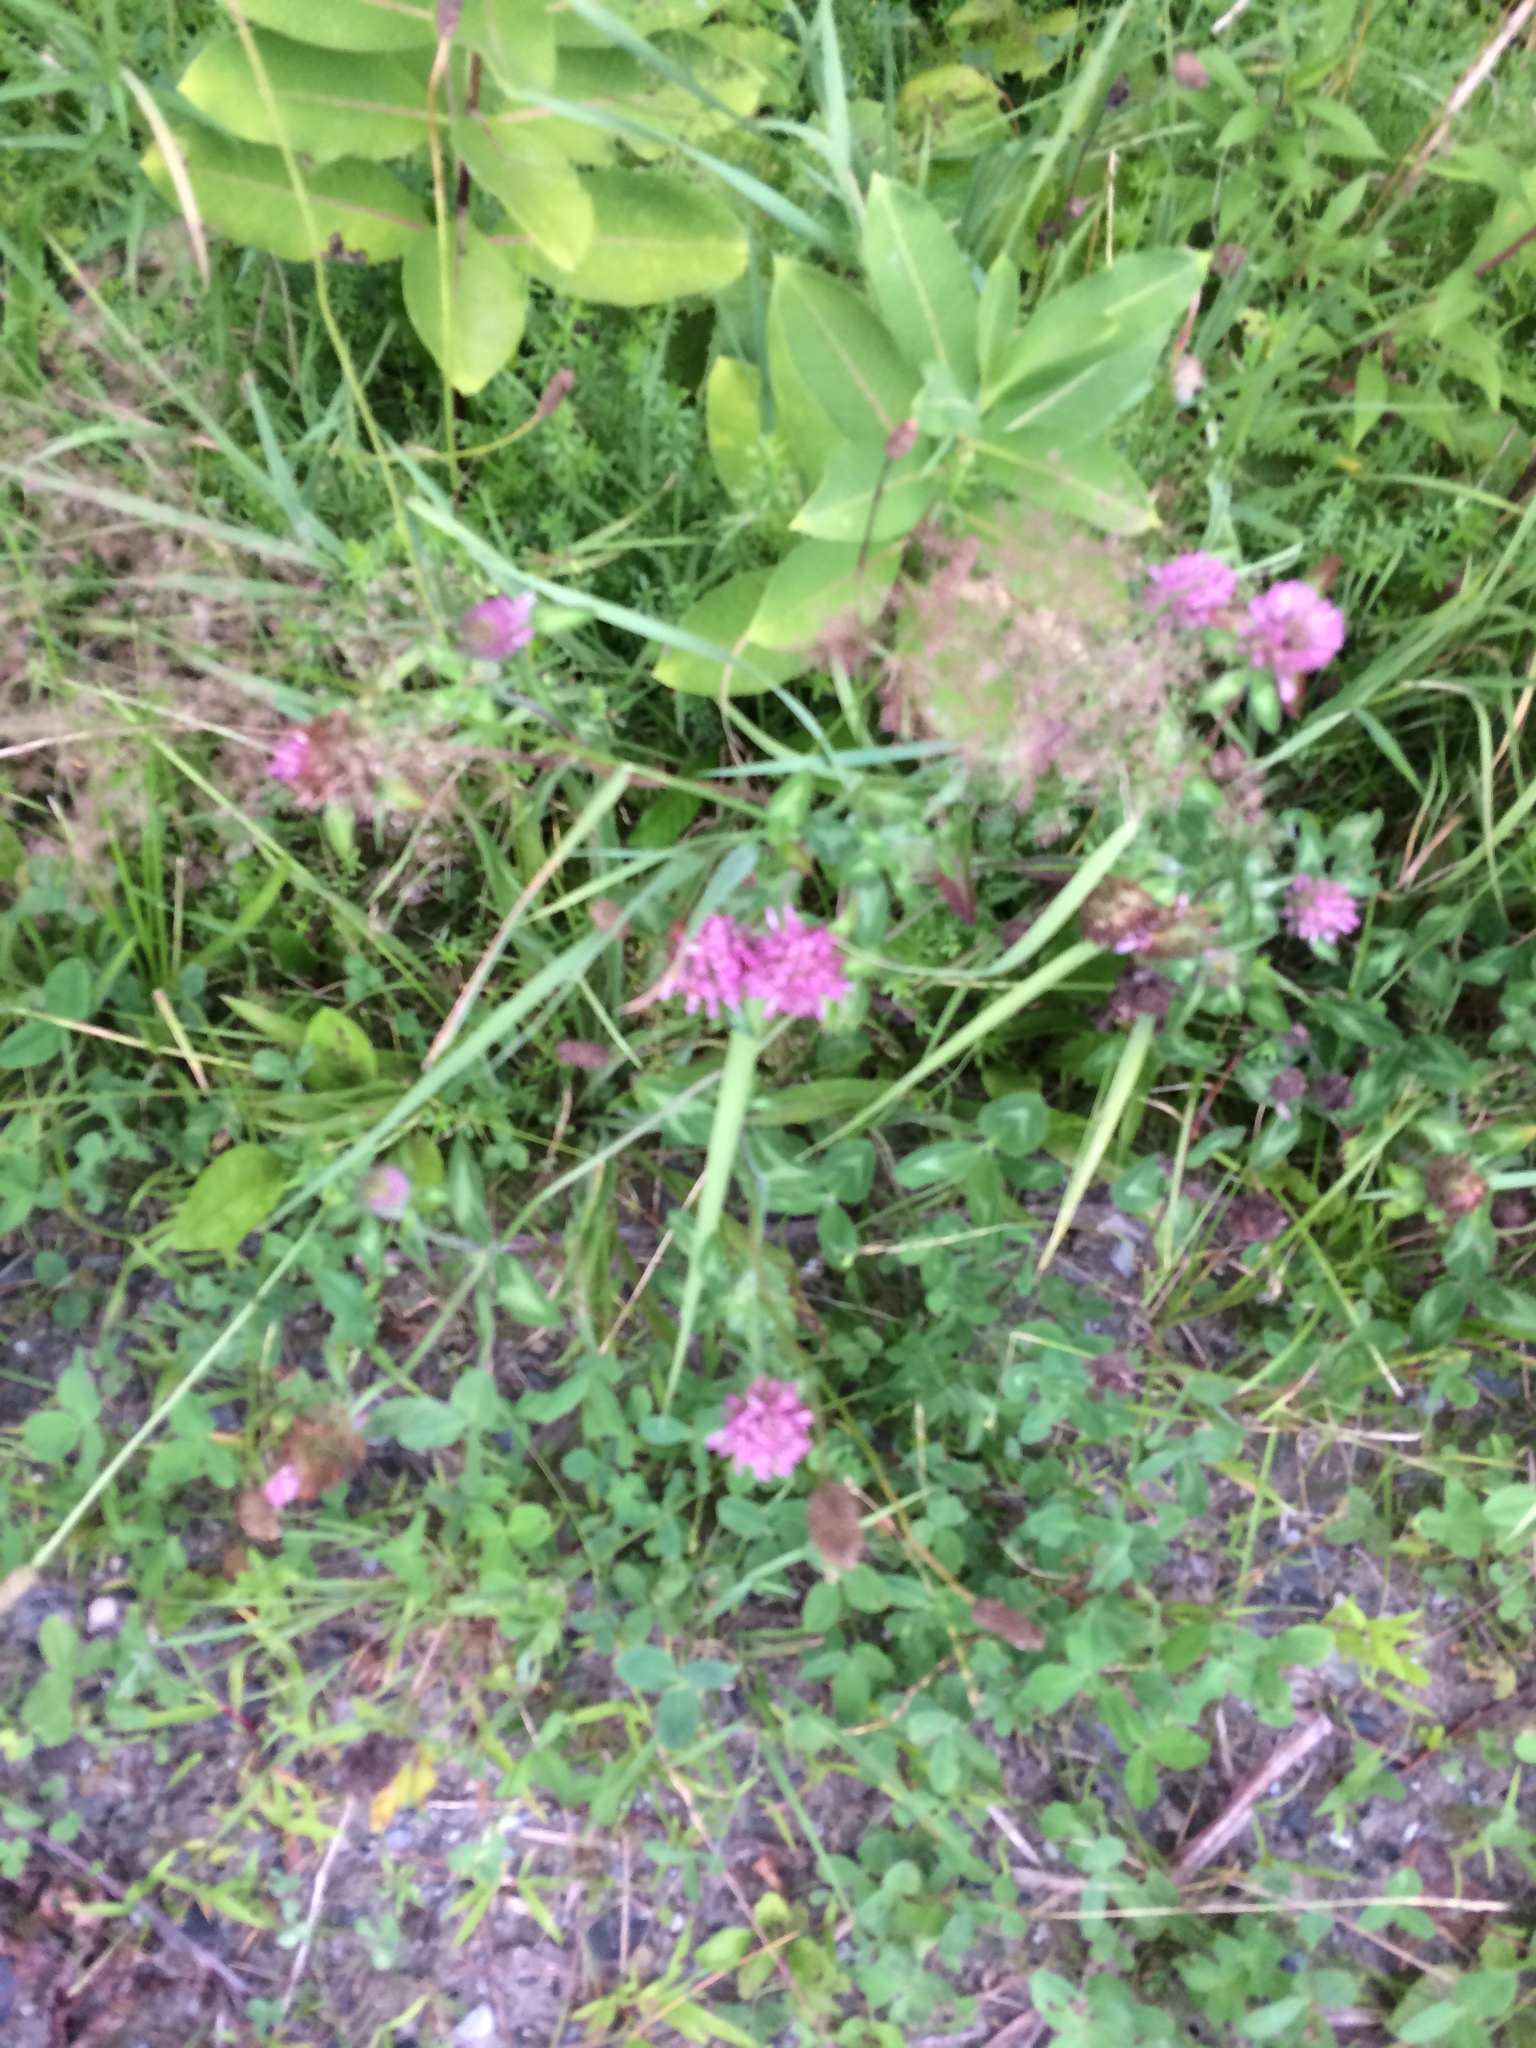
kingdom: Plantae
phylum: Tracheophyta
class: Magnoliopsida
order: Fabales
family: Fabaceae
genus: Trifolium
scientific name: Trifolium pratense
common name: Red clover
